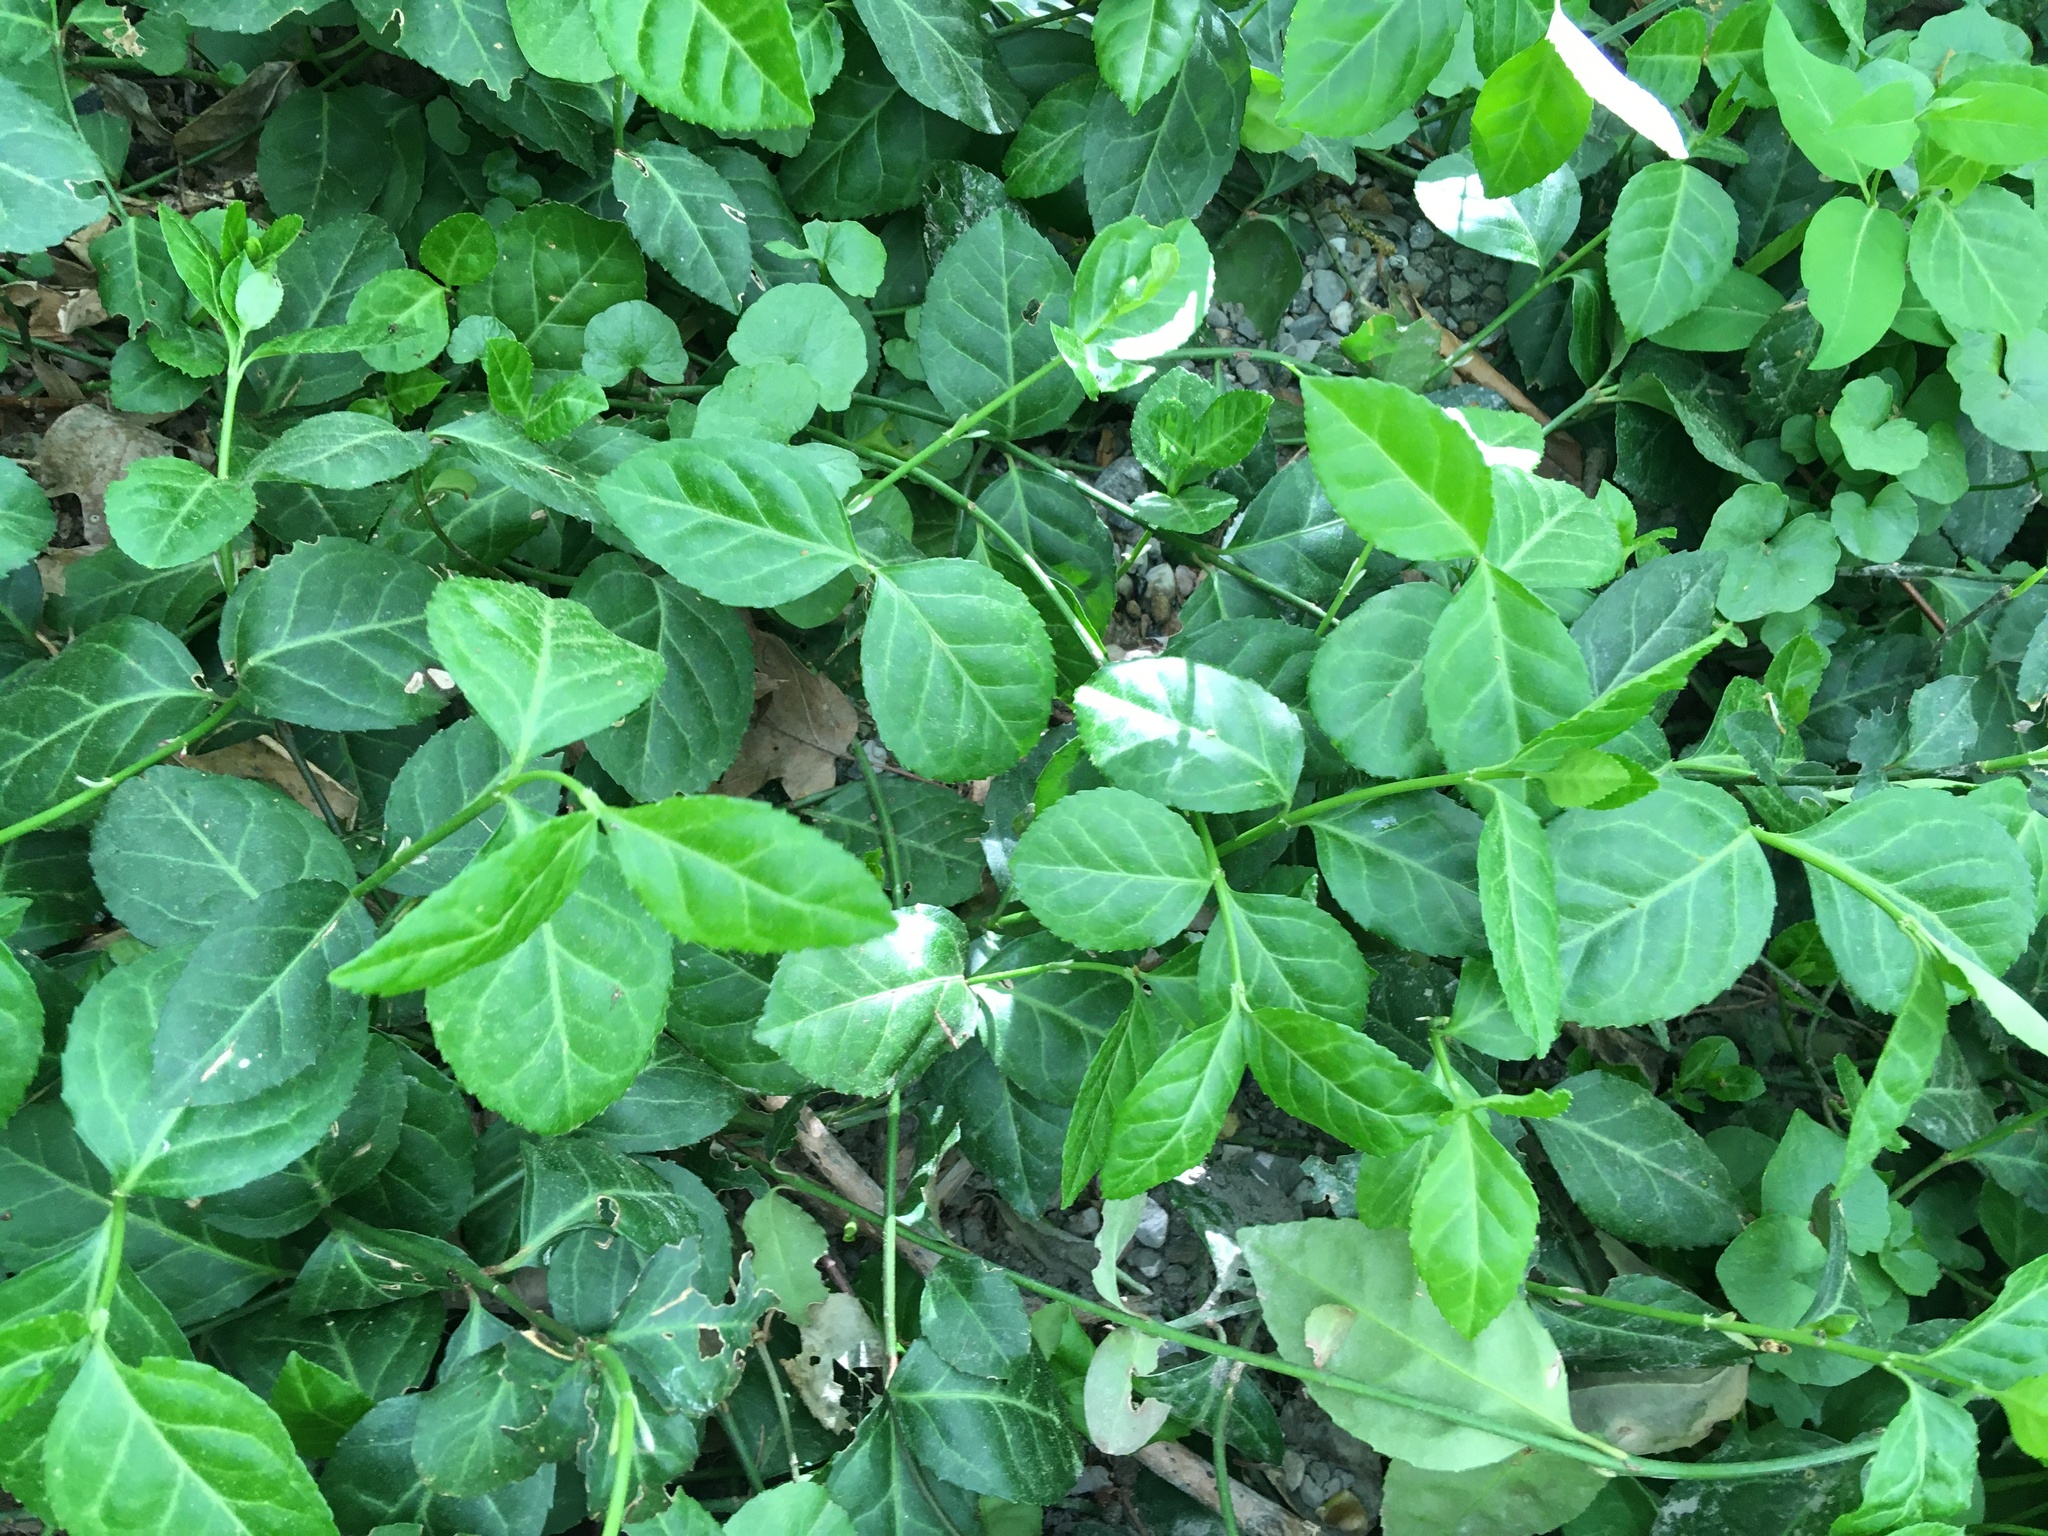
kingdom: Plantae
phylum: Tracheophyta
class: Magnoliopsida
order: Celastrales
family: Celastraceae
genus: Euonymus
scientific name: Euonymus fortunei
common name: Climbing euonymus
